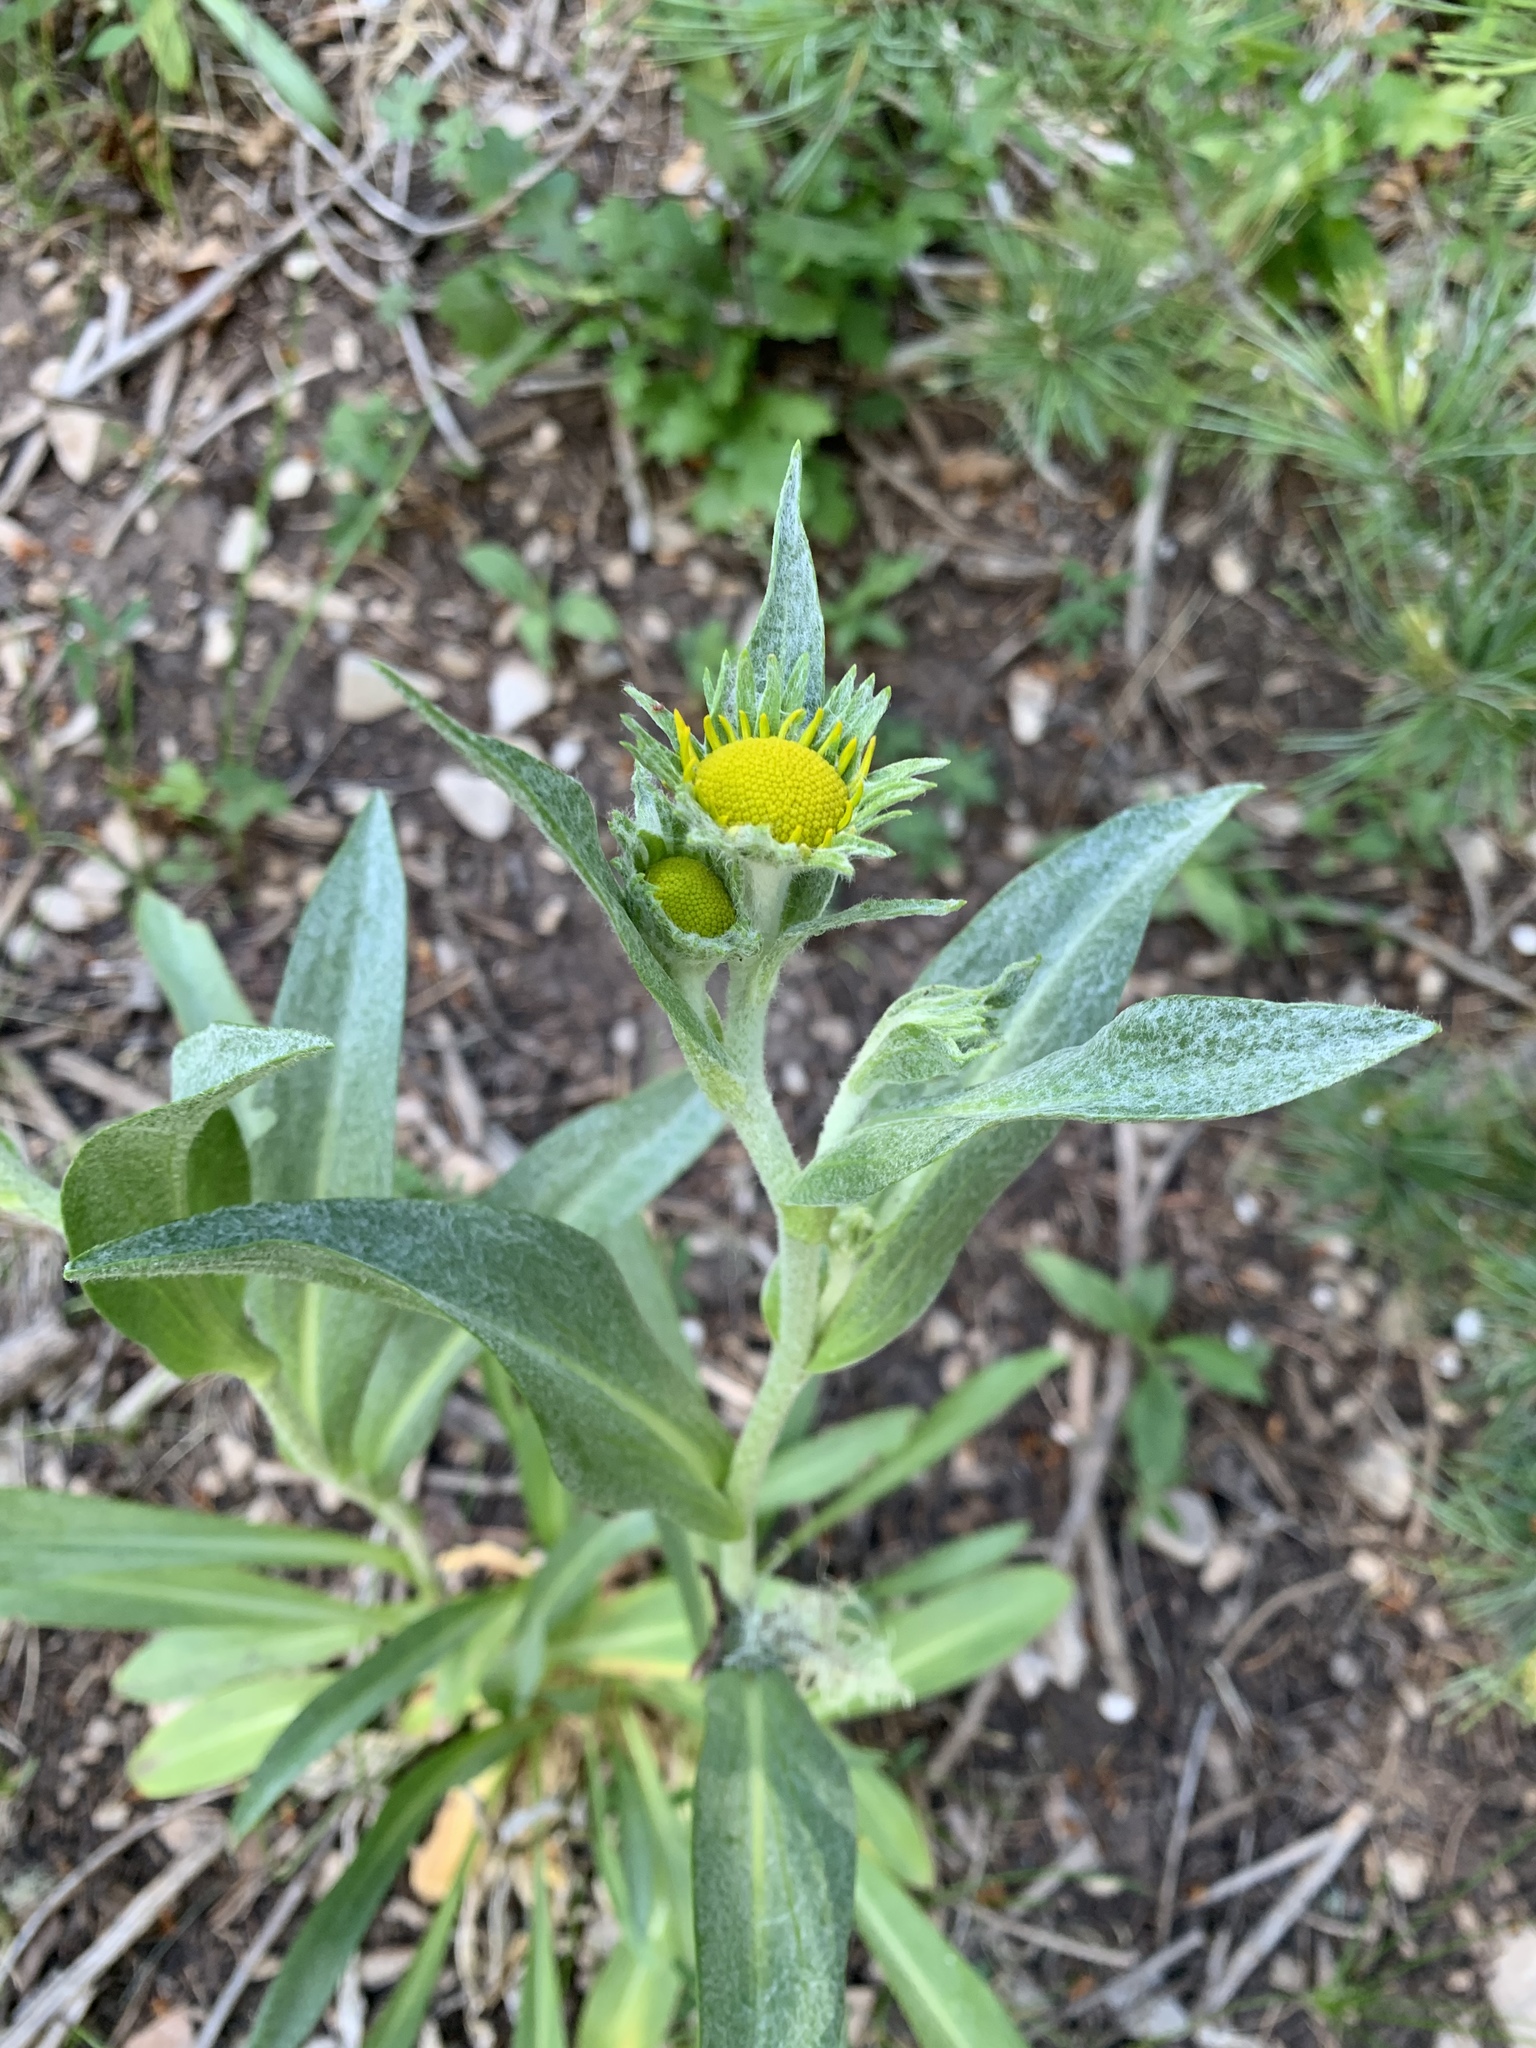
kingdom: Plantae
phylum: Tracheophyta
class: Magnoliopsida
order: Asterales
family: Asteraceae
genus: Hymenoxys
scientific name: Hymenoxys hoopesii
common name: Orange-sneezeweed
